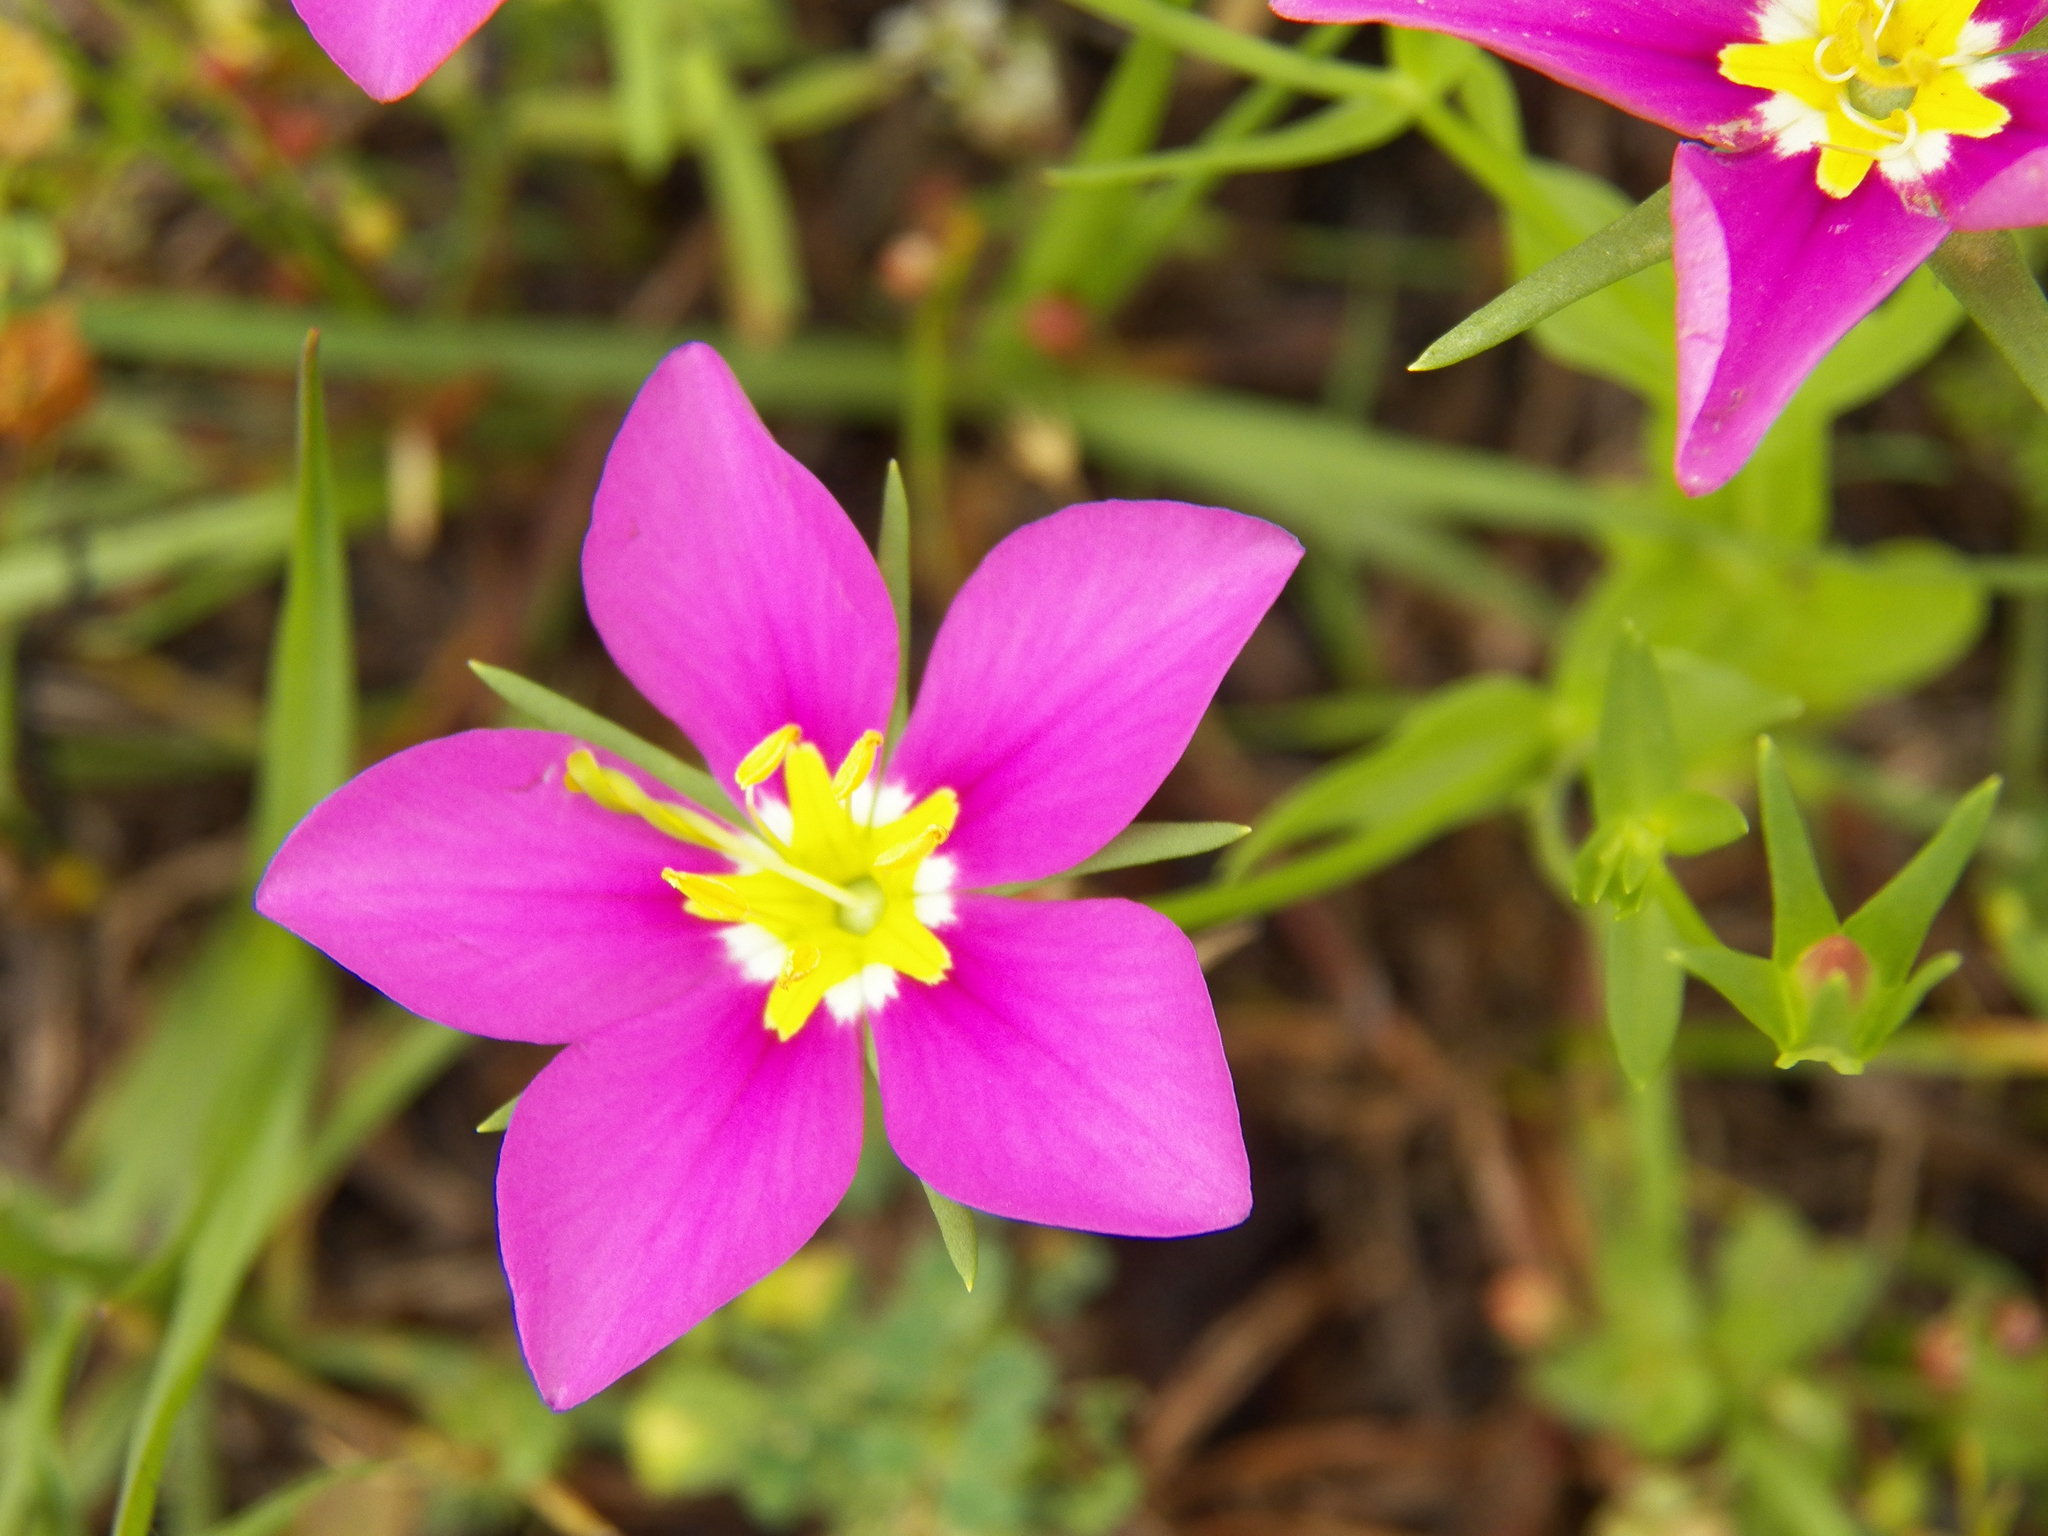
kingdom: Plantae
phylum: Tracheophyta
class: Magnoliopsida
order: Gentianales
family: Gentianaceae
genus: Sabatia
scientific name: Sabatia campestris
